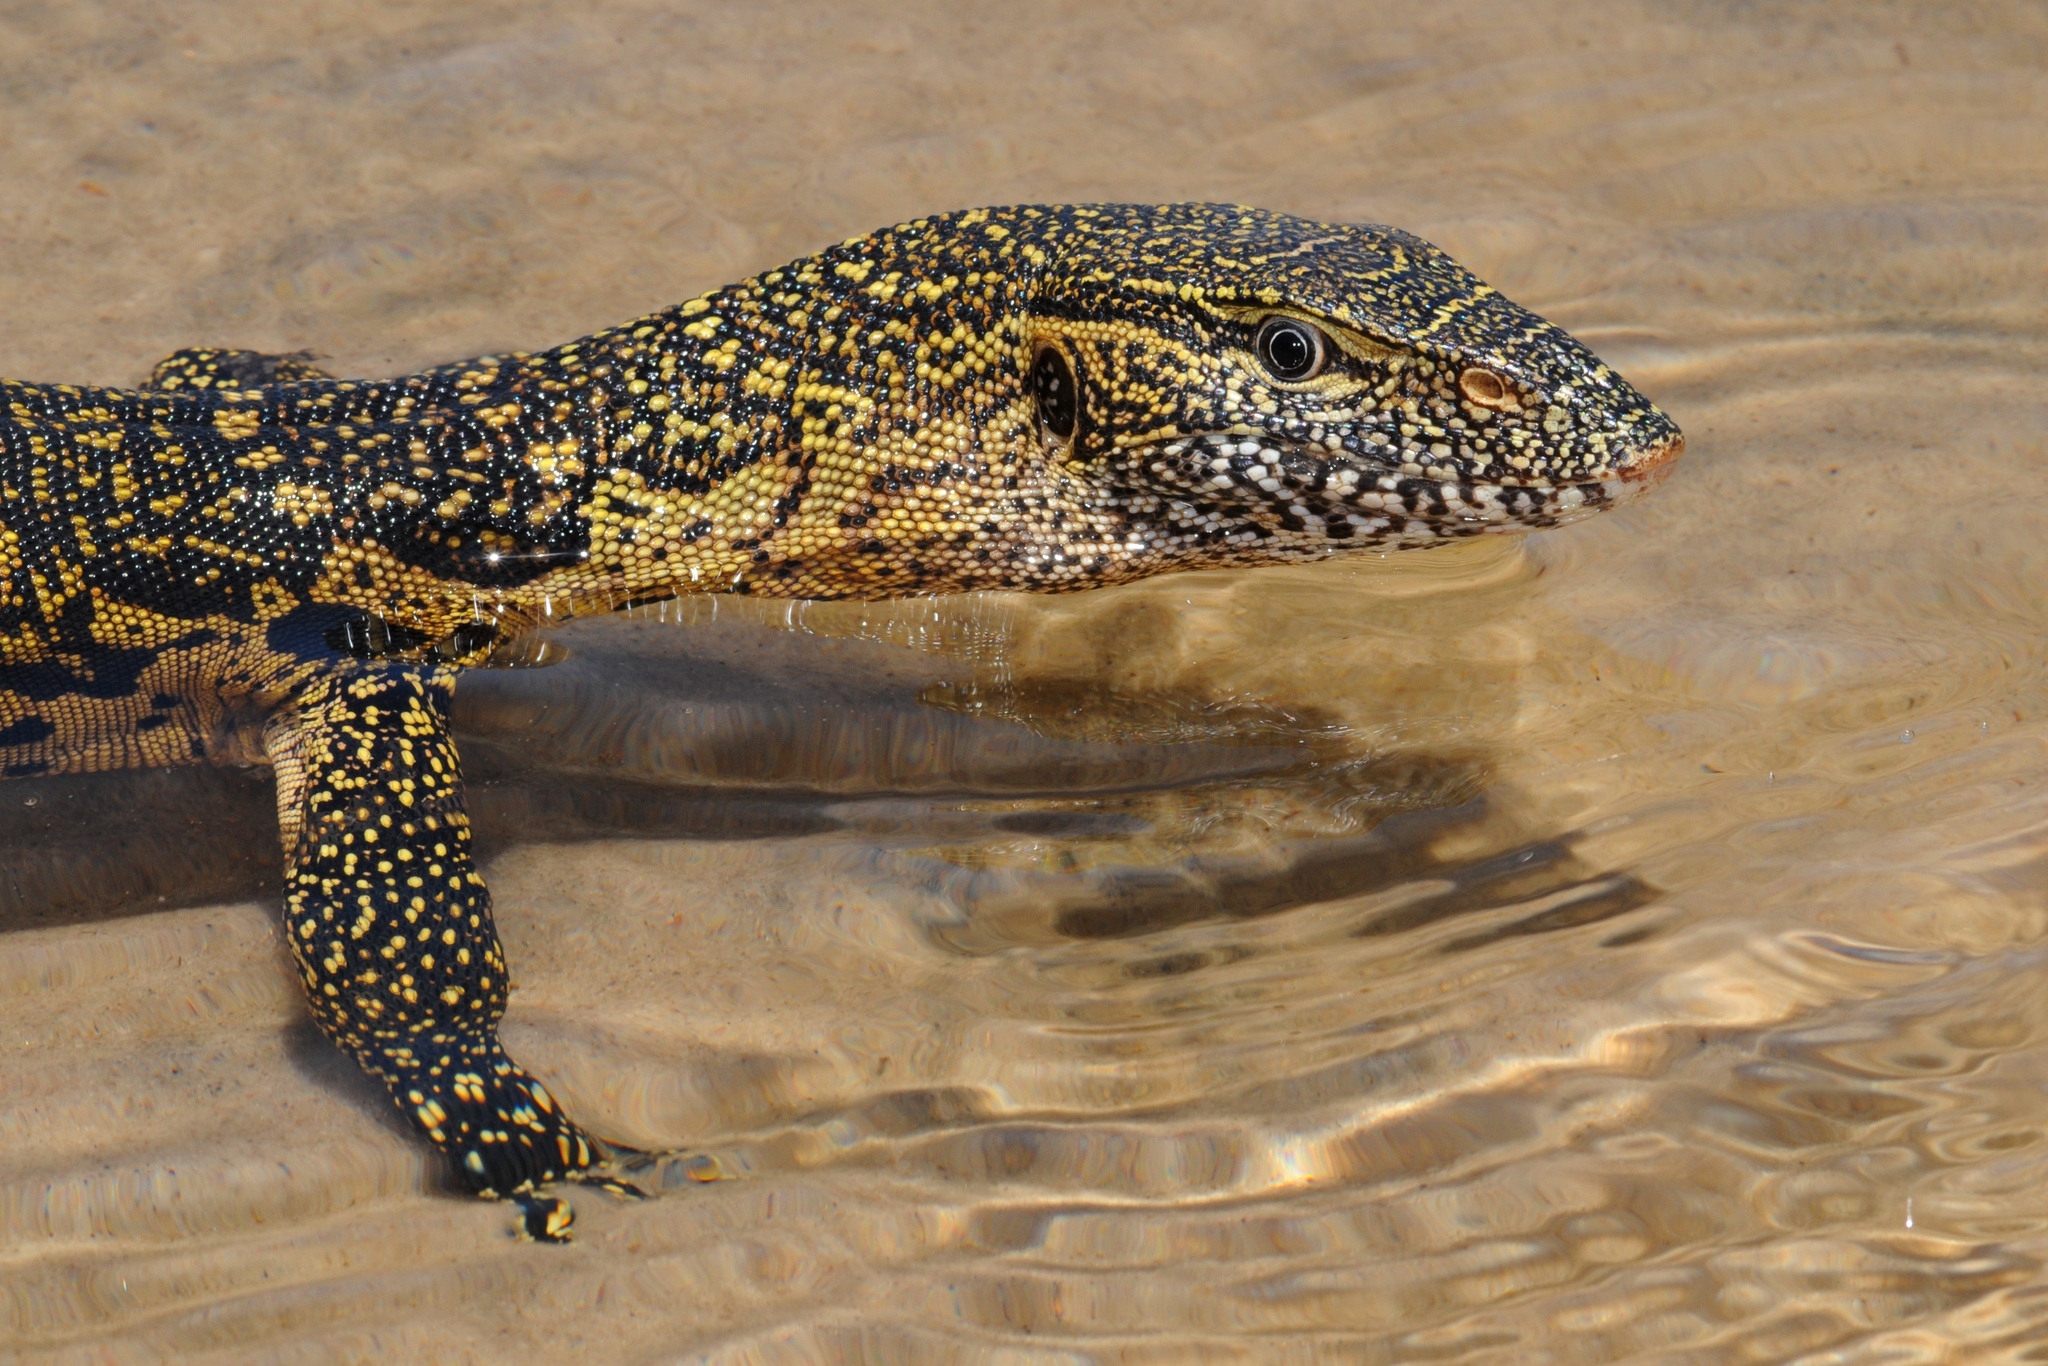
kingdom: Animalia
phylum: Chordata
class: Squamata
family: Varanidae
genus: Varanus
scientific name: Varanus niloticus
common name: Nile monitor
